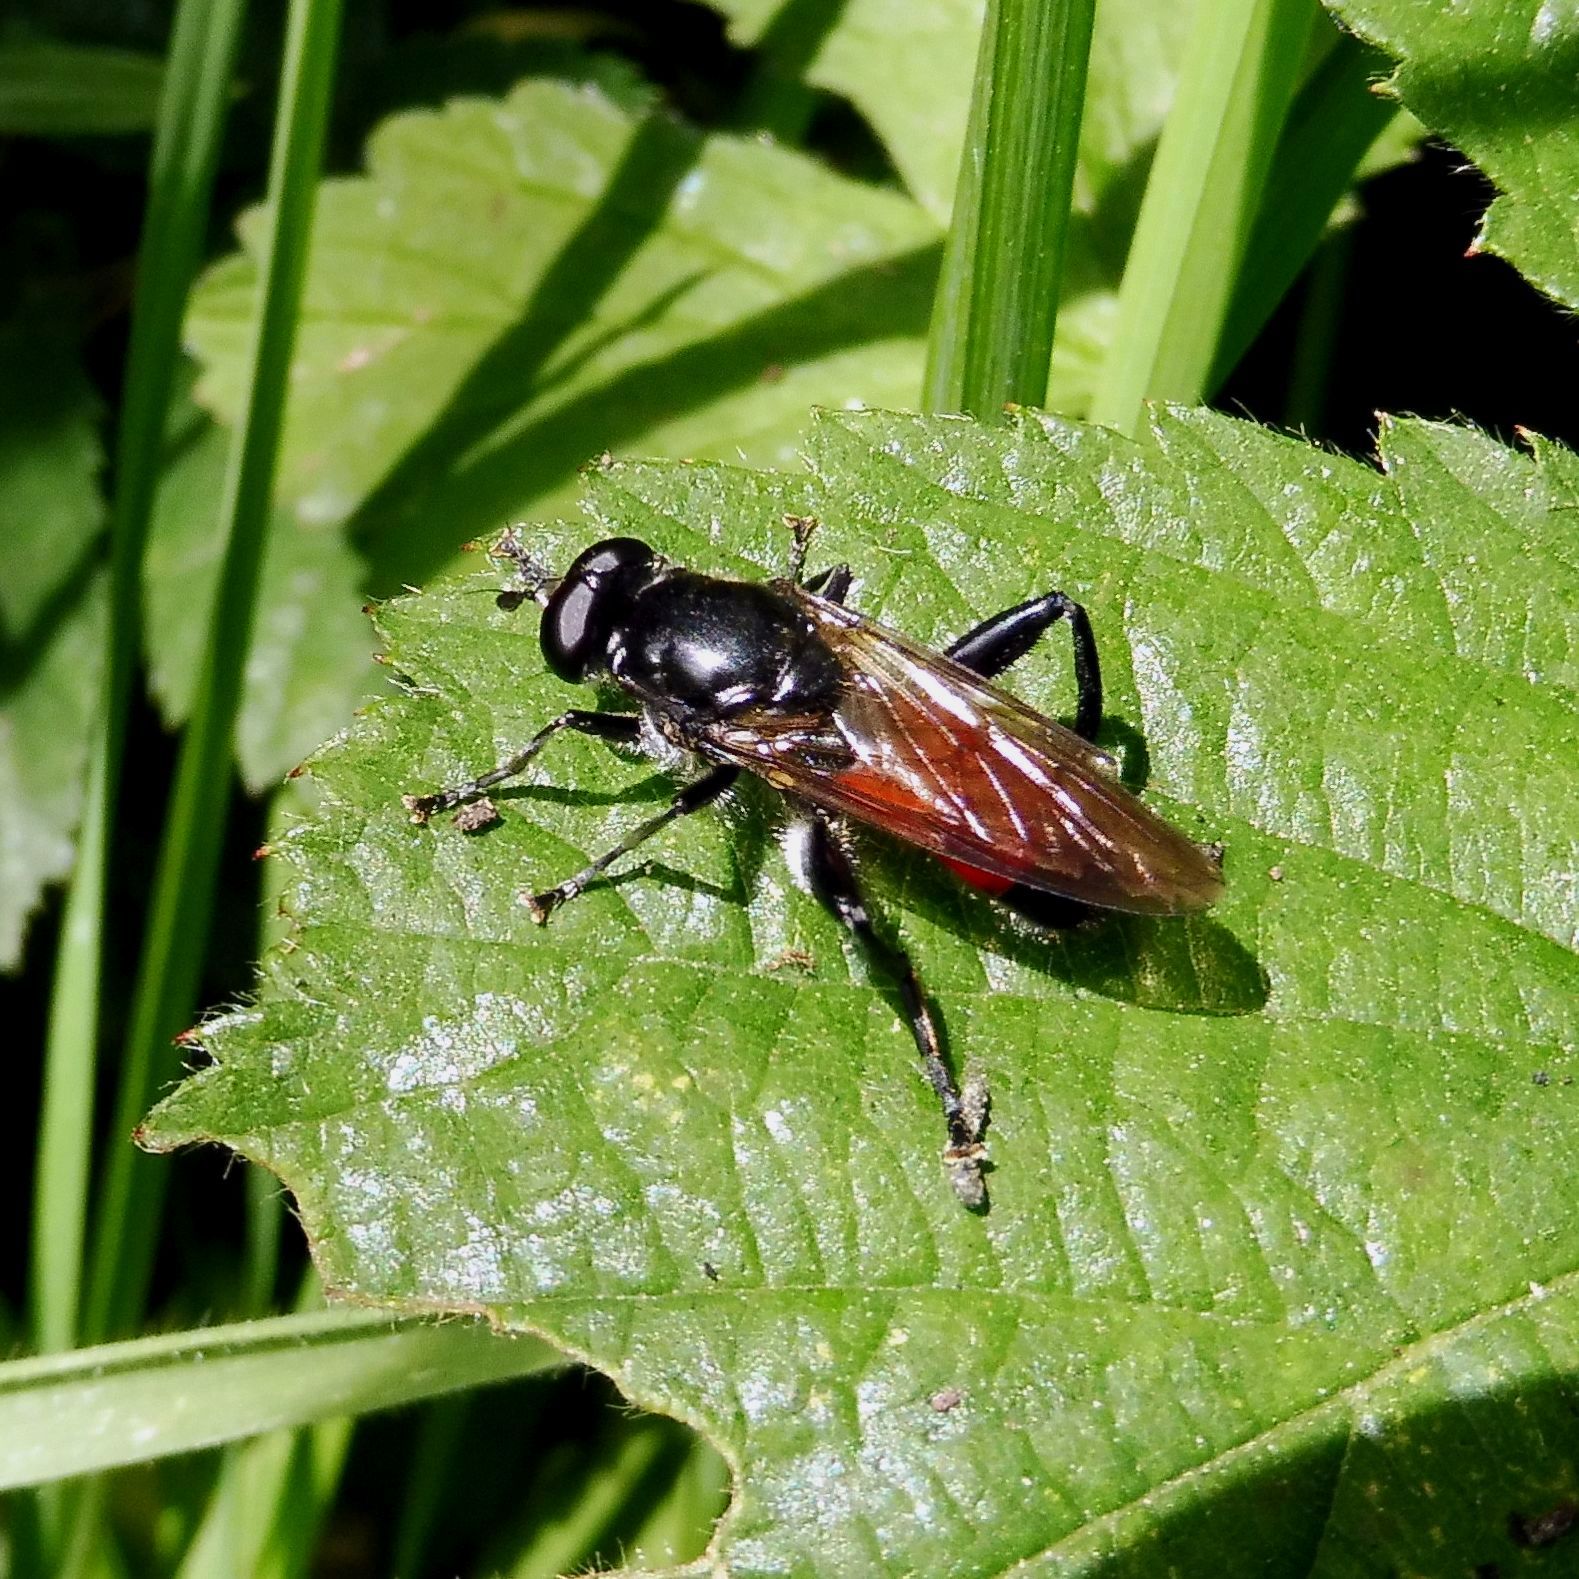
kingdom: Animalia
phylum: Arthropoda
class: Insecta
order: Diptera
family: Syrphidae
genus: Brachypalpoides
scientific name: Brachypalpoides lenta
